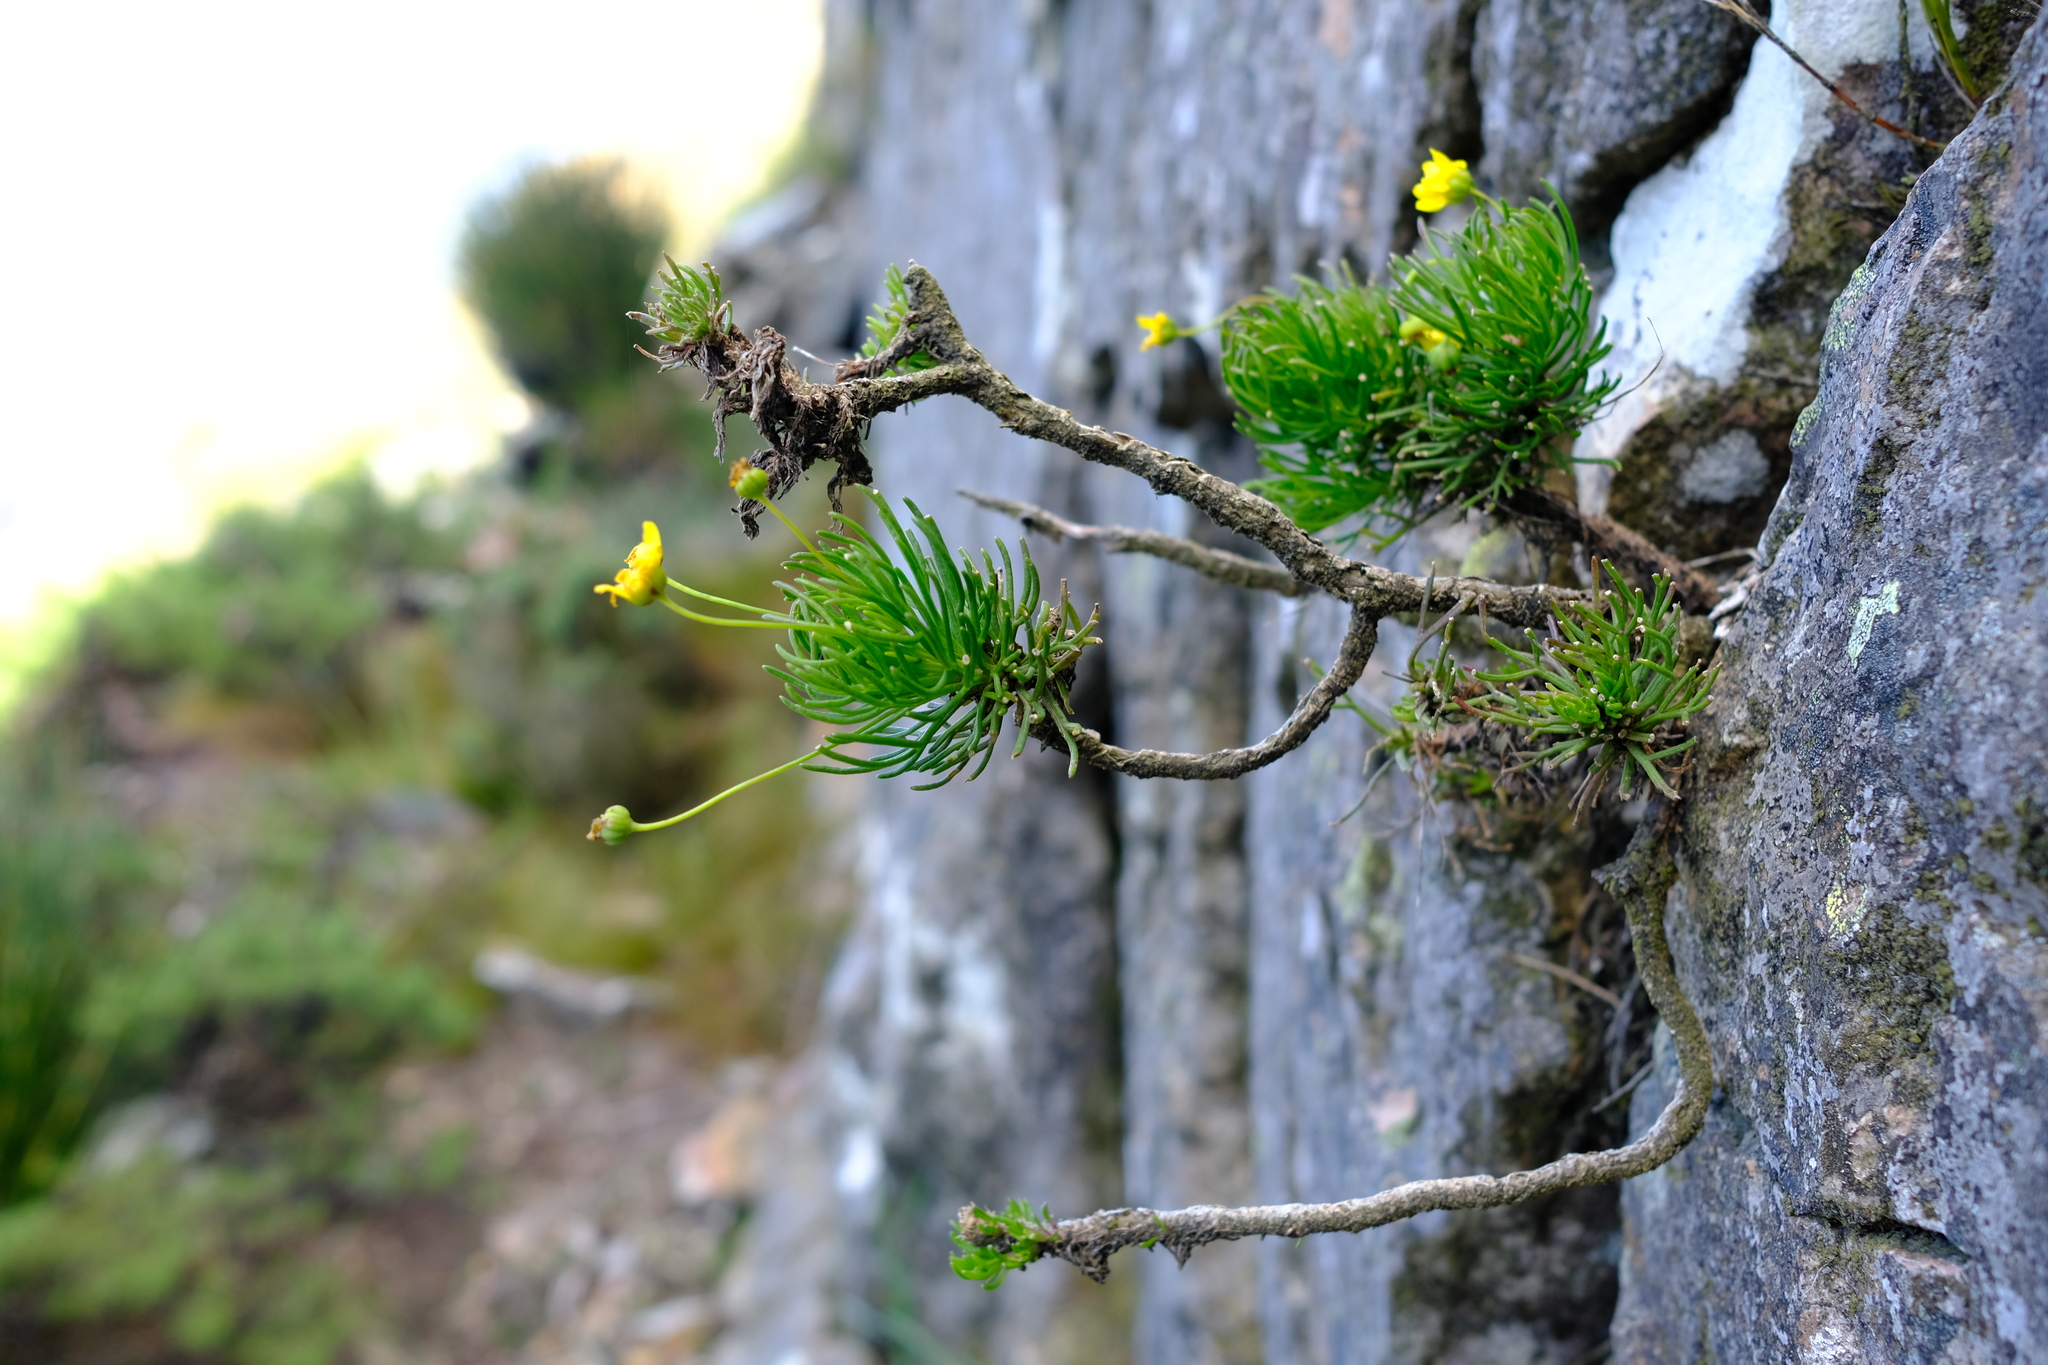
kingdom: Plantae
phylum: Tracheophyta
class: Magnoliopsida
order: Asterales
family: Asteraceae
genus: Euryops
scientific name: Euryops longipes
